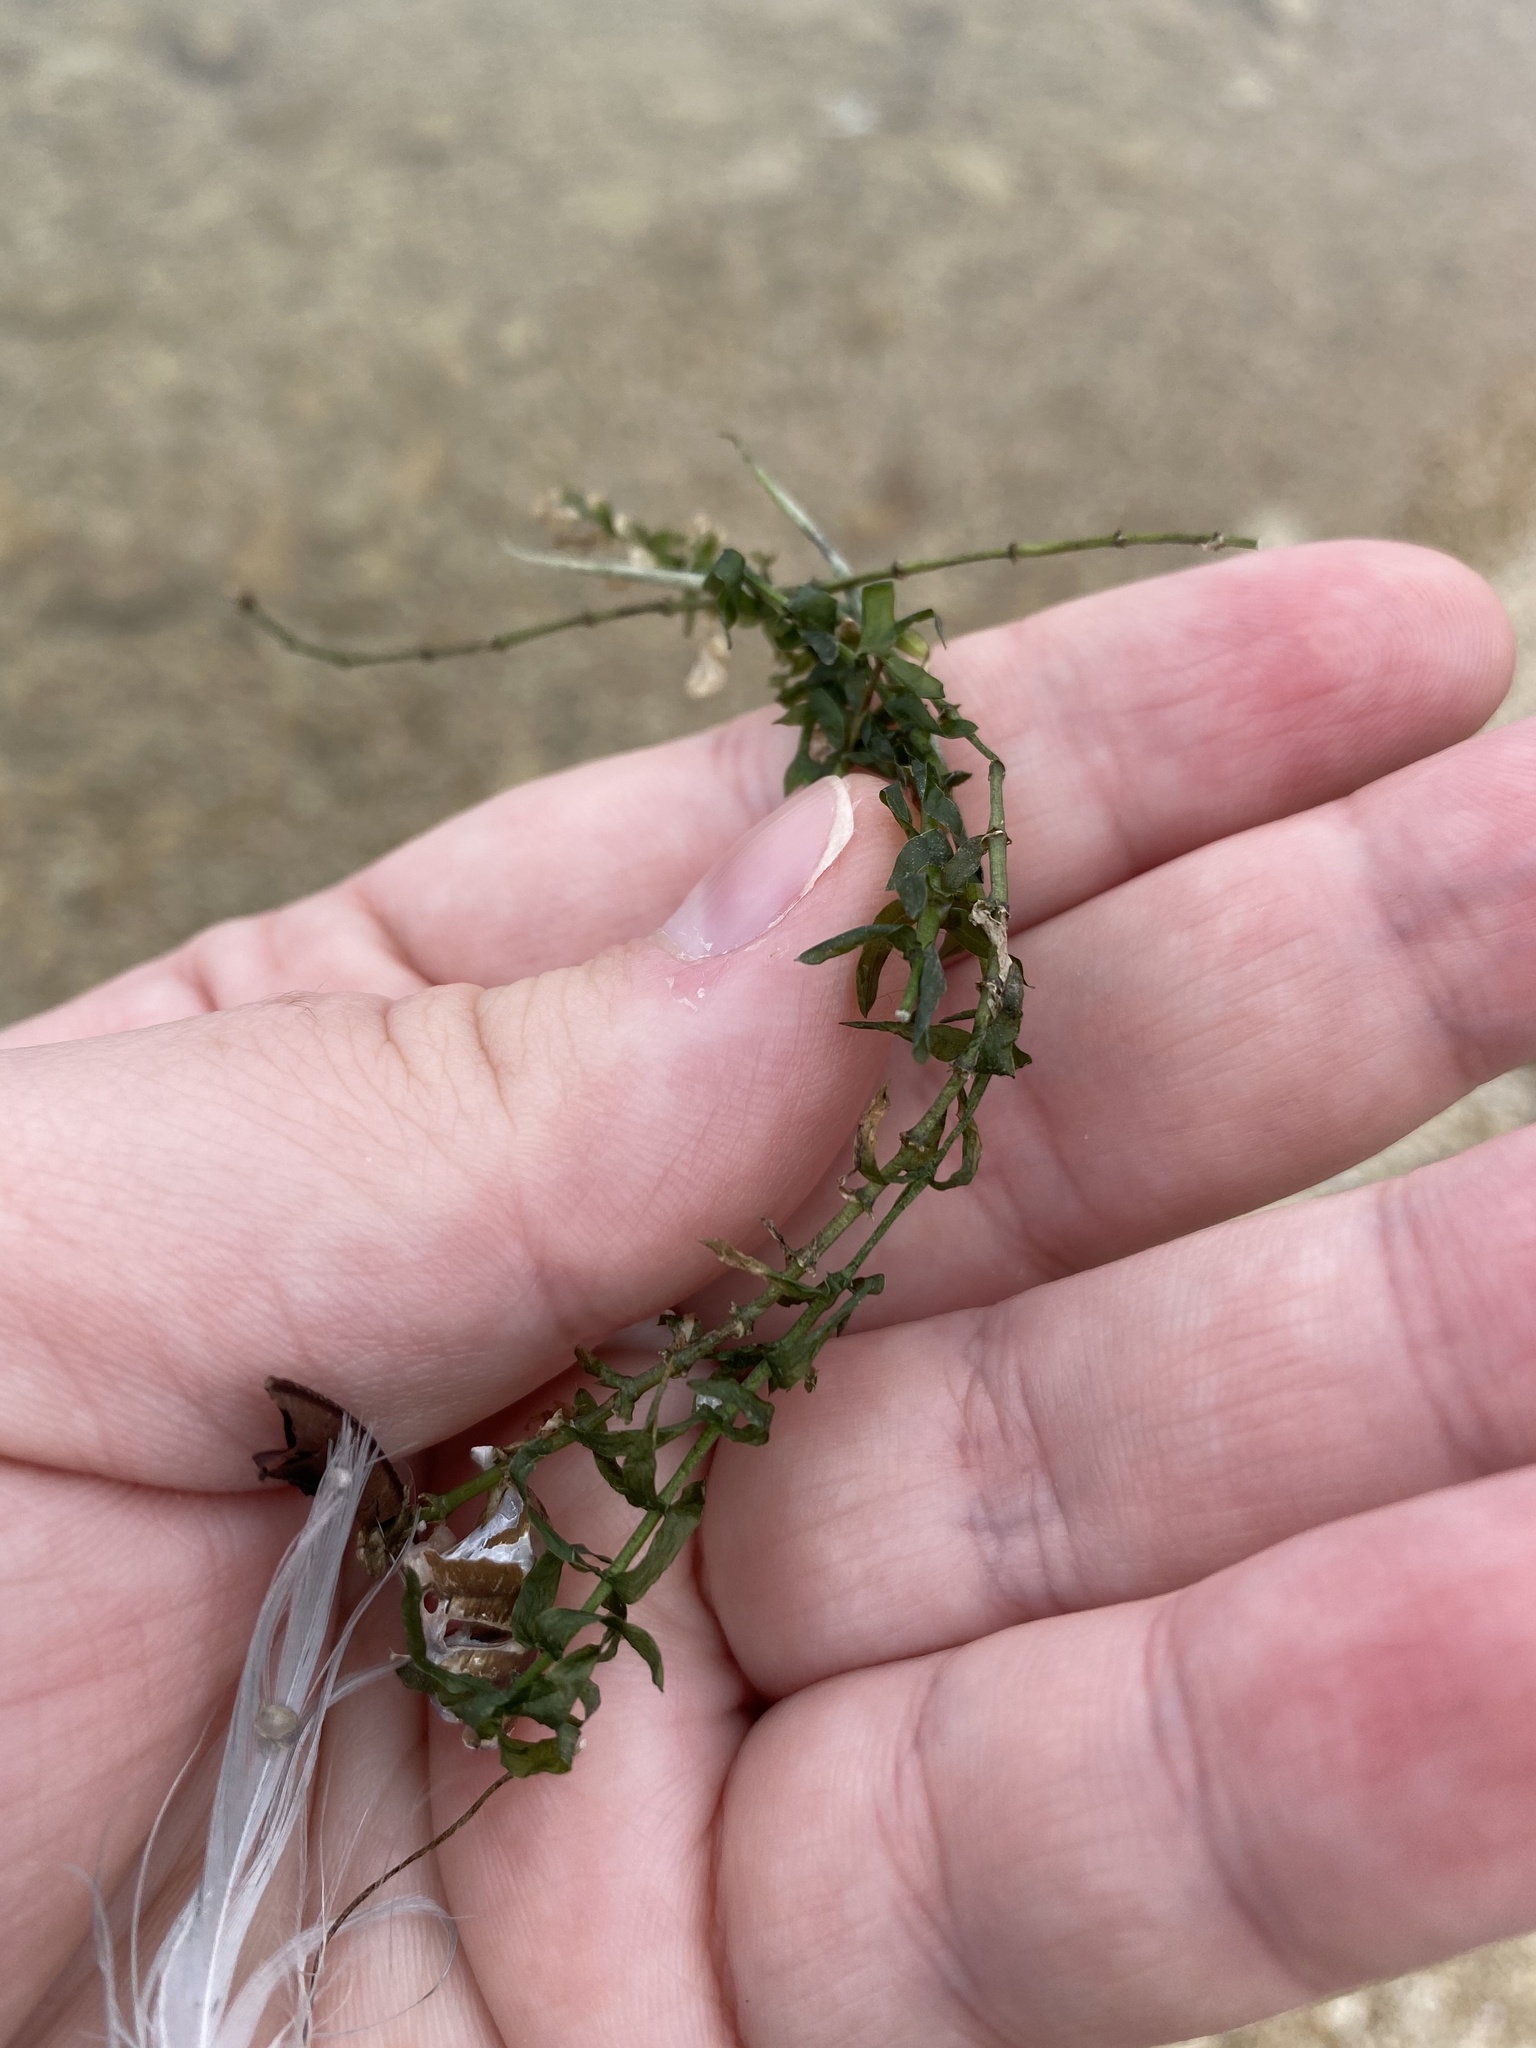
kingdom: Plantae
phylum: Tracheophyta
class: Liliopsida
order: Alismatales
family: Hydrocharitaceae
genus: Elodea
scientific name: Elodea canadensis
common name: Canadian waterweed
